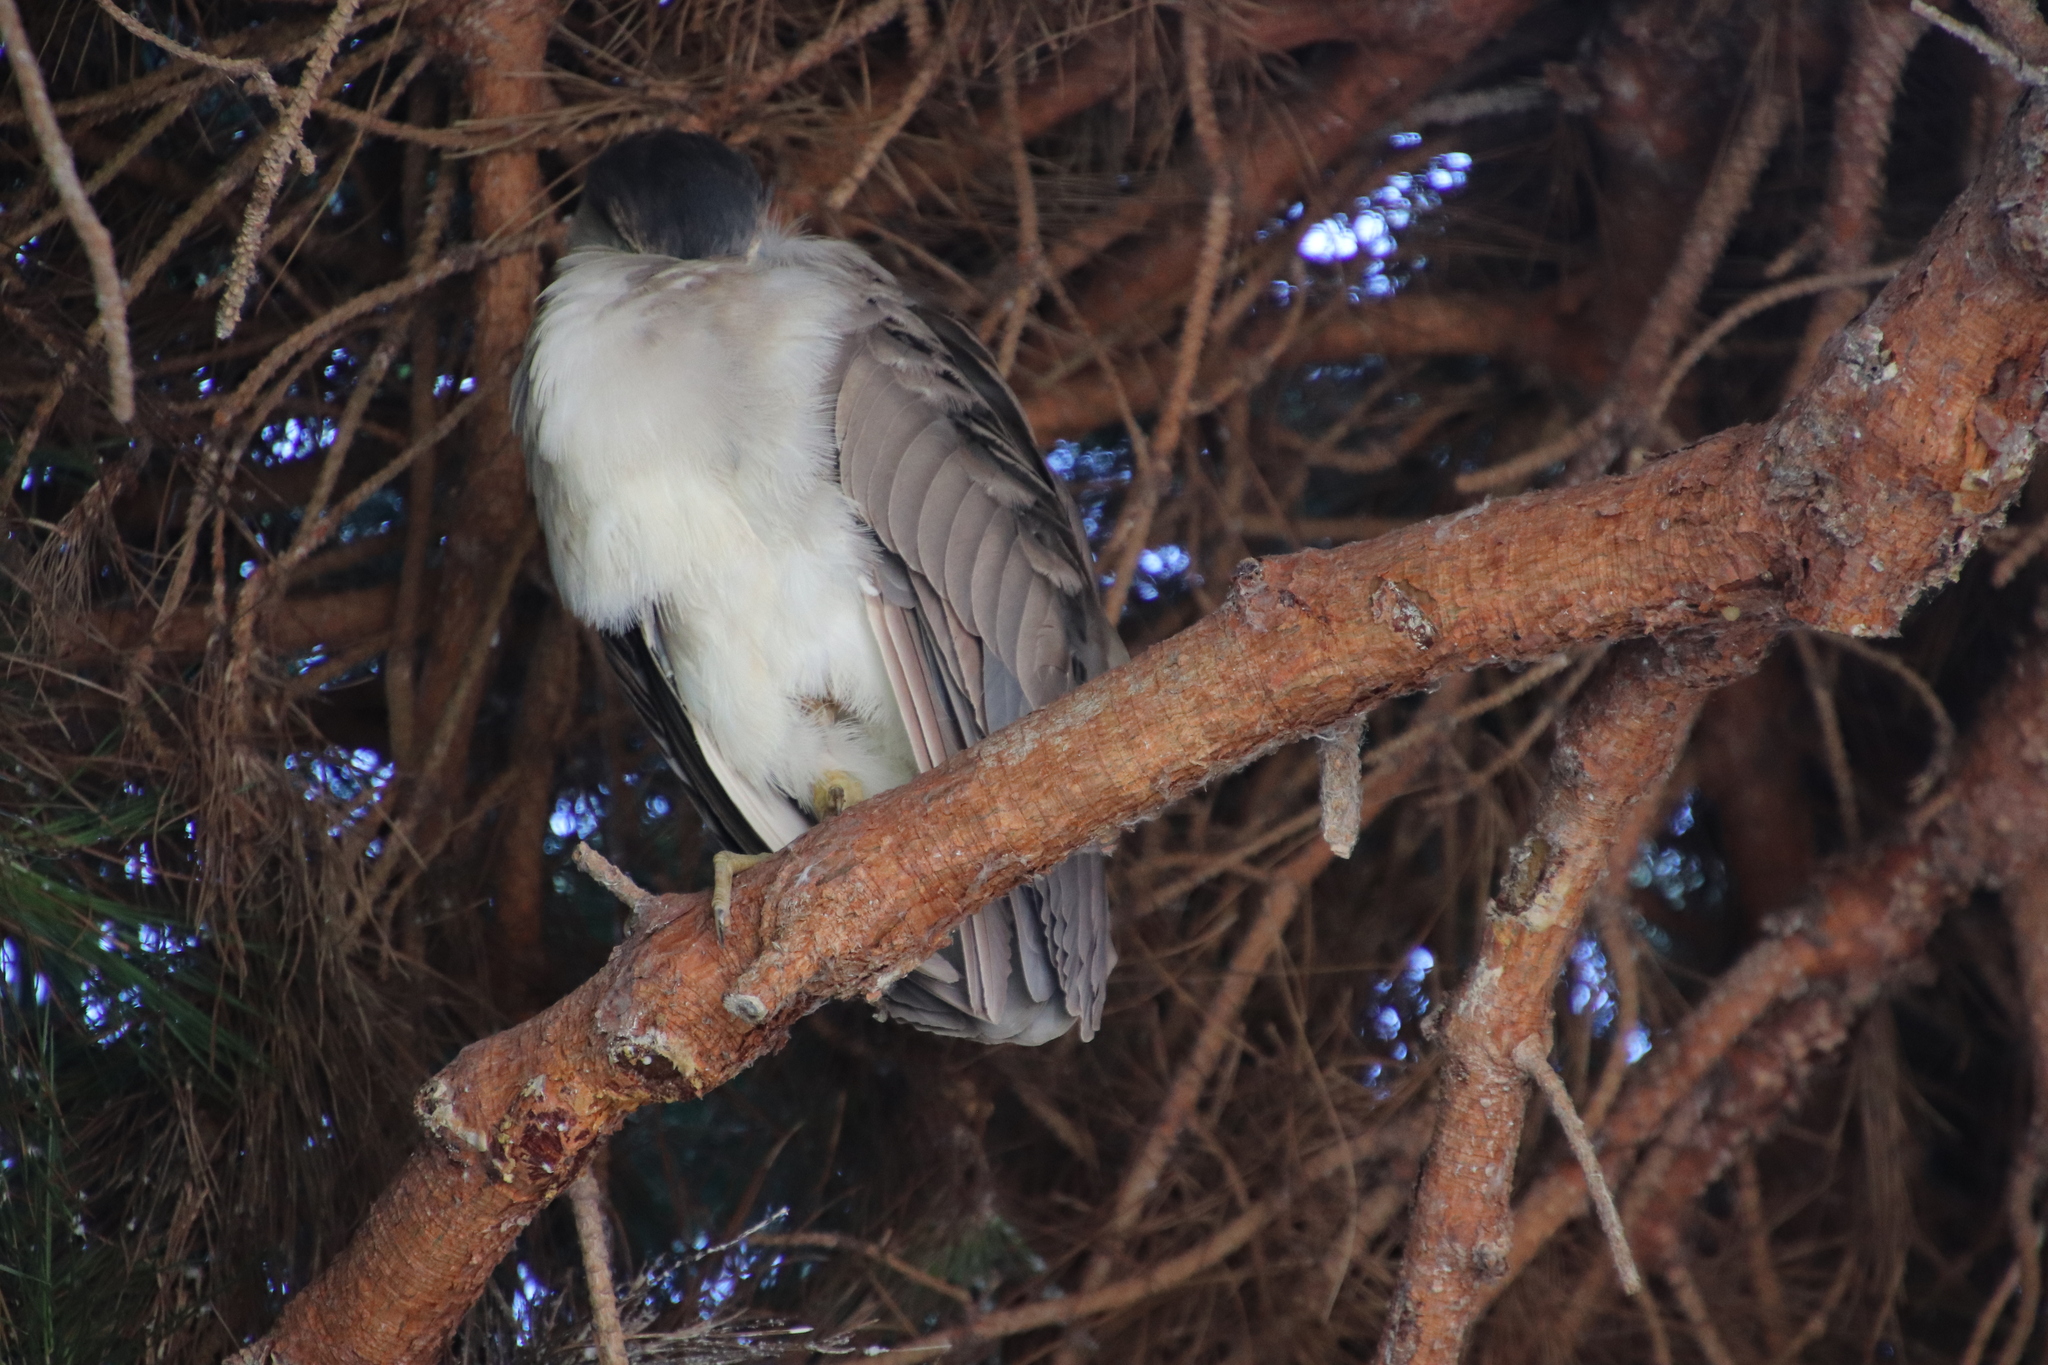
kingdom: Animalia
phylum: Chordata
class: Aves
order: Pelecaniformes
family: Ardeidae
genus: Nycticorax
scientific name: Nycticorax nycticorax
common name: Black-crowned night heron
